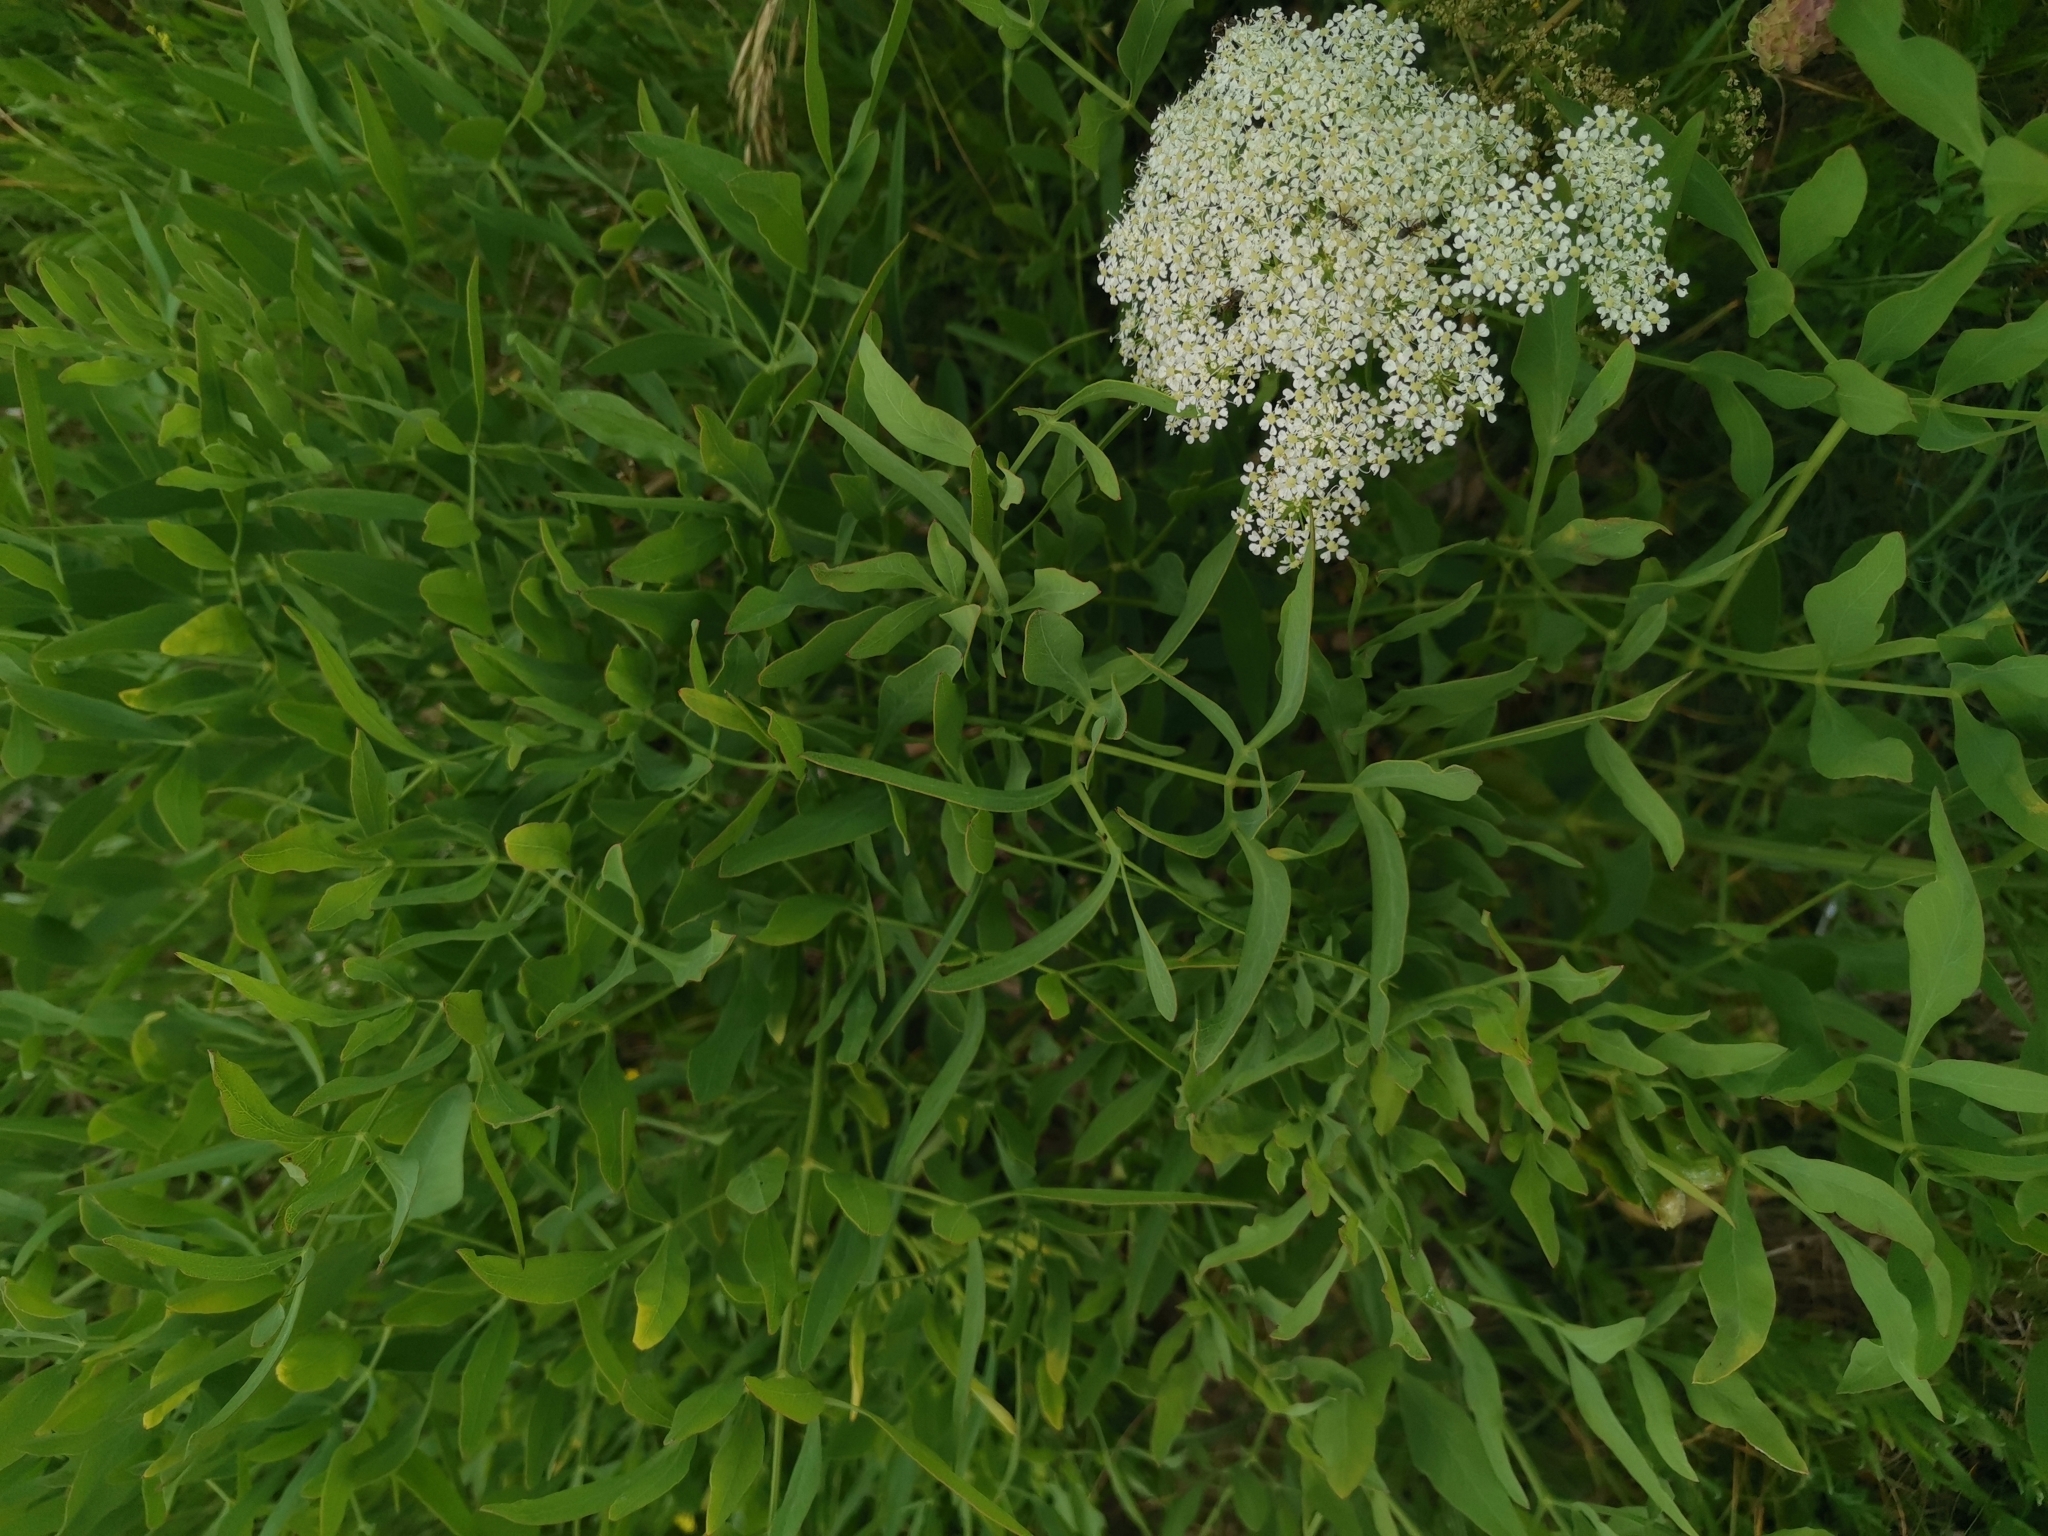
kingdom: Plantae
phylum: Tracheophyta
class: Magnoliopsida
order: Apiales
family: Apiaceae
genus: Siler
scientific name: Siler montanum
